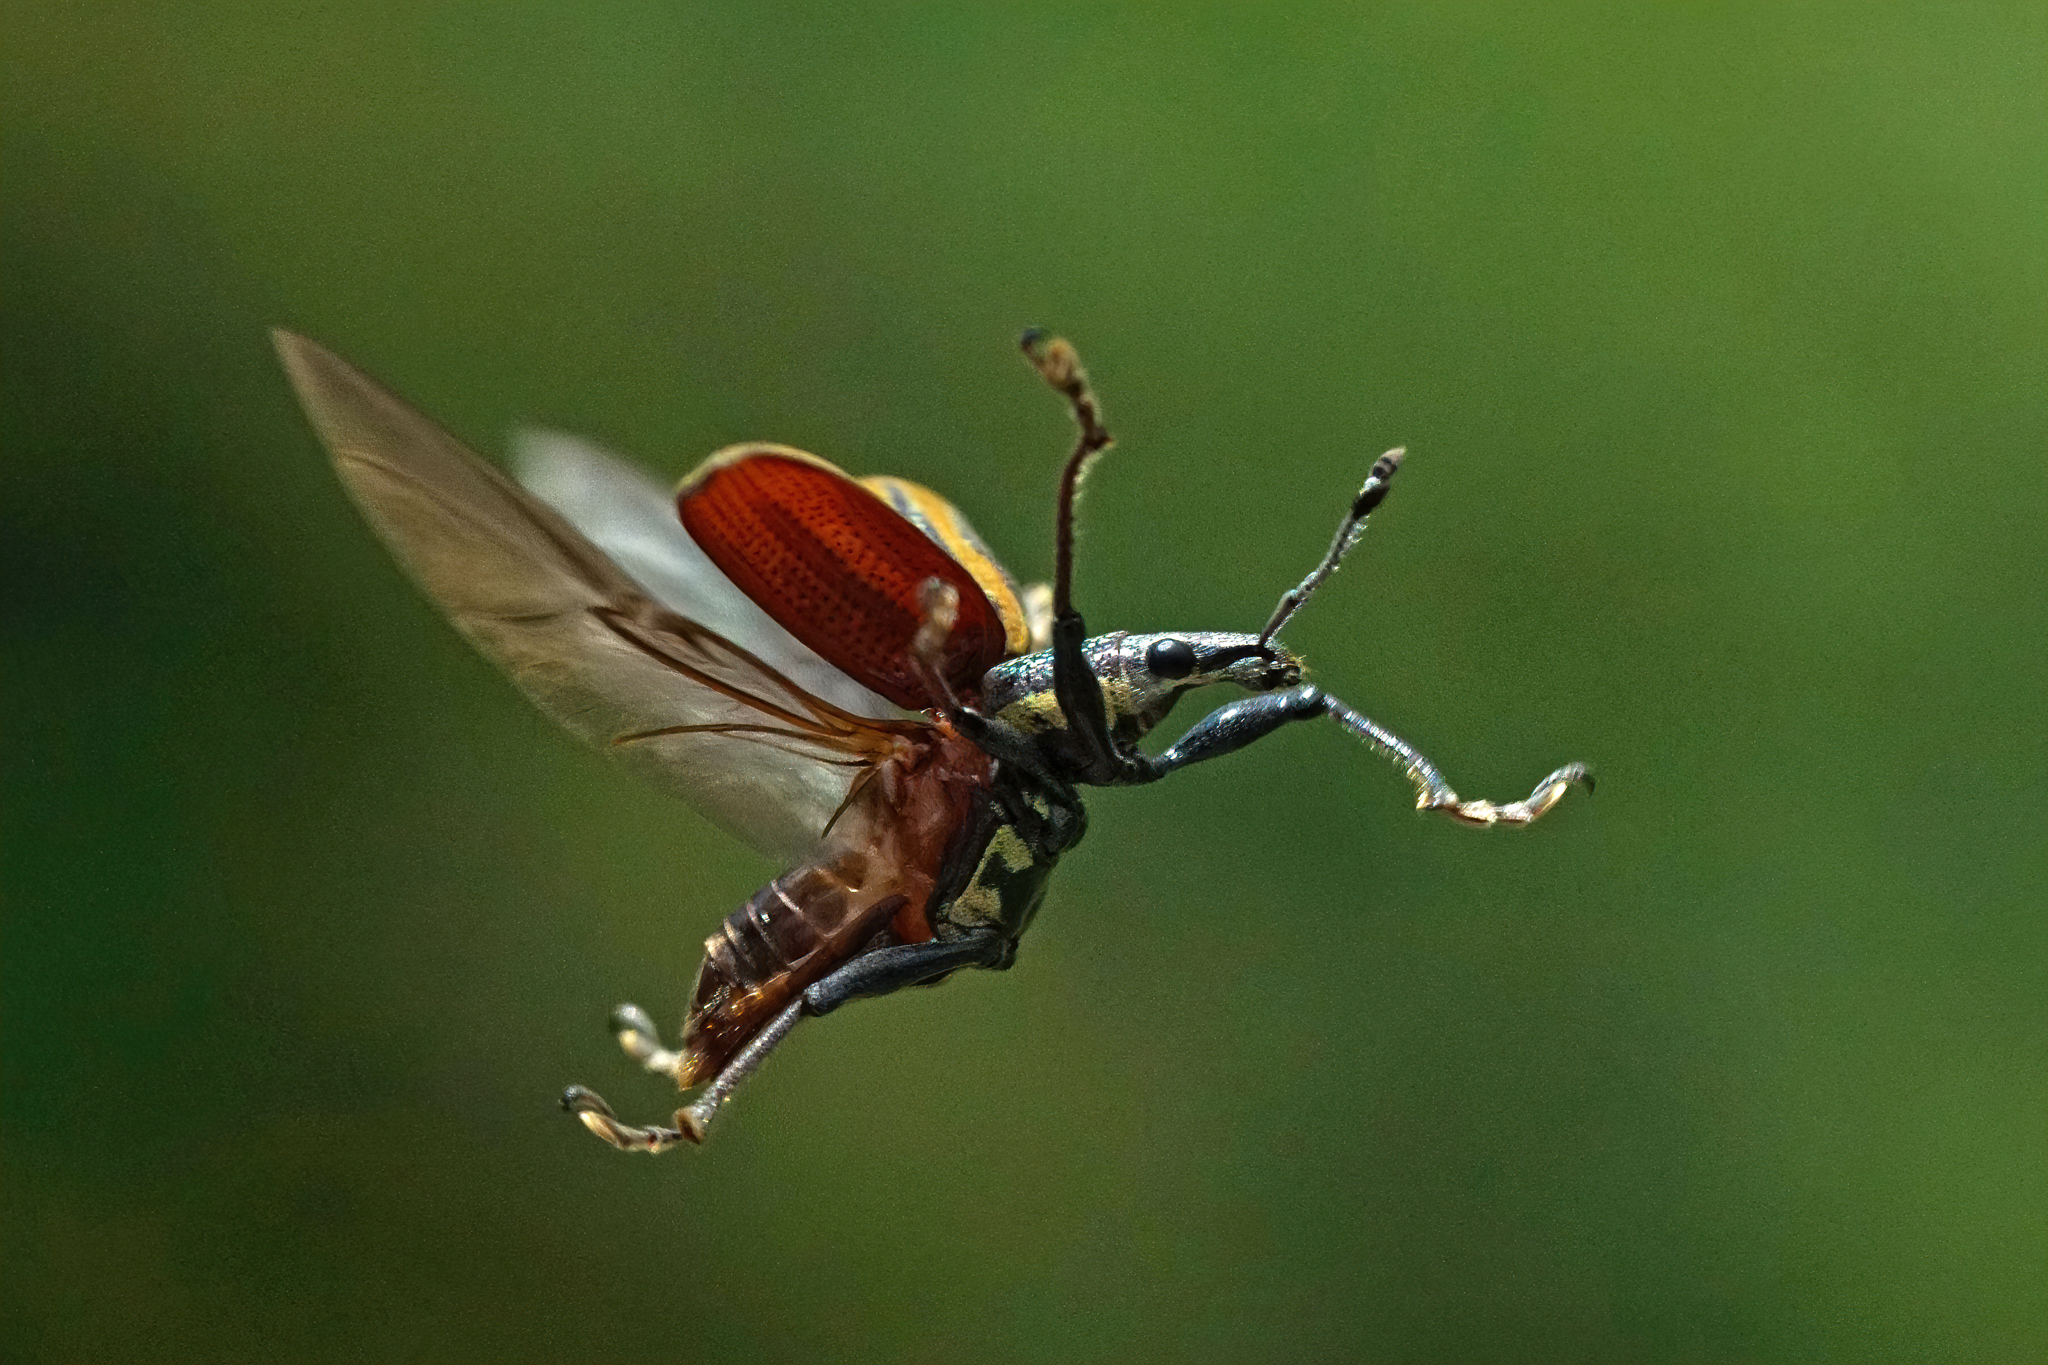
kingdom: Animalia
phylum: Arthropoda
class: Insecta
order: Coleoptera
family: Curculionidae
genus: Diaprepes
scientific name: Diaprepes abbreviatus
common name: Root weevil
